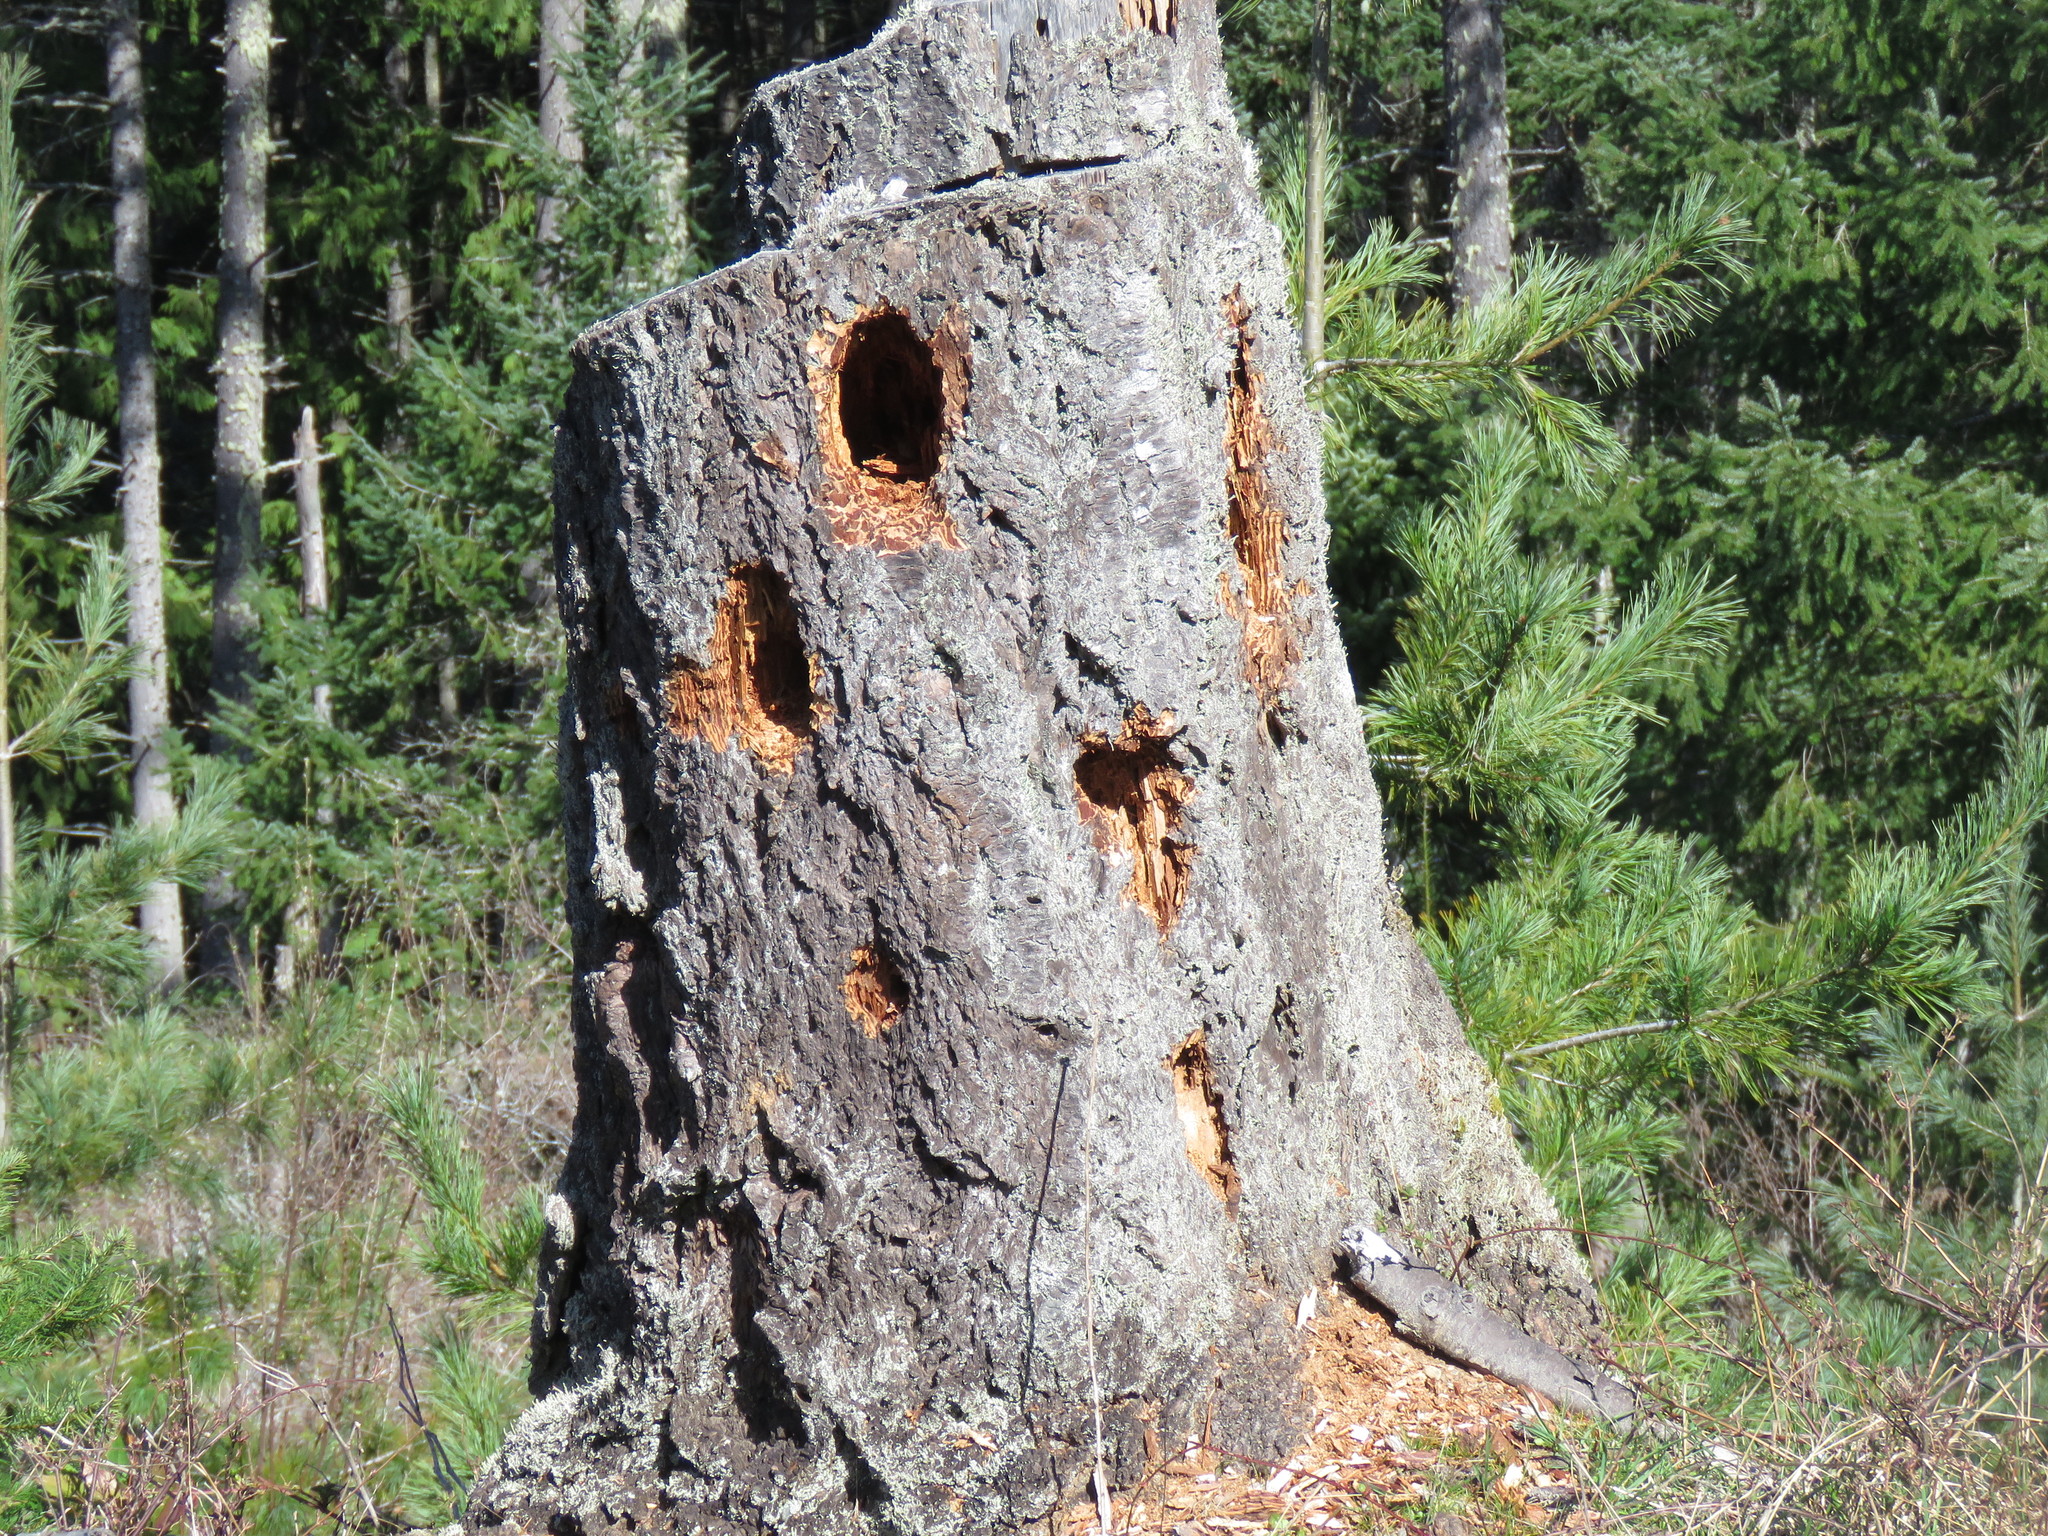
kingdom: Animalia
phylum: Chordata
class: Aves
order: Piciformes
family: Picidae
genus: Dryocopus
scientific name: Dryocopus pileatus
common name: Pileated woodpecker
